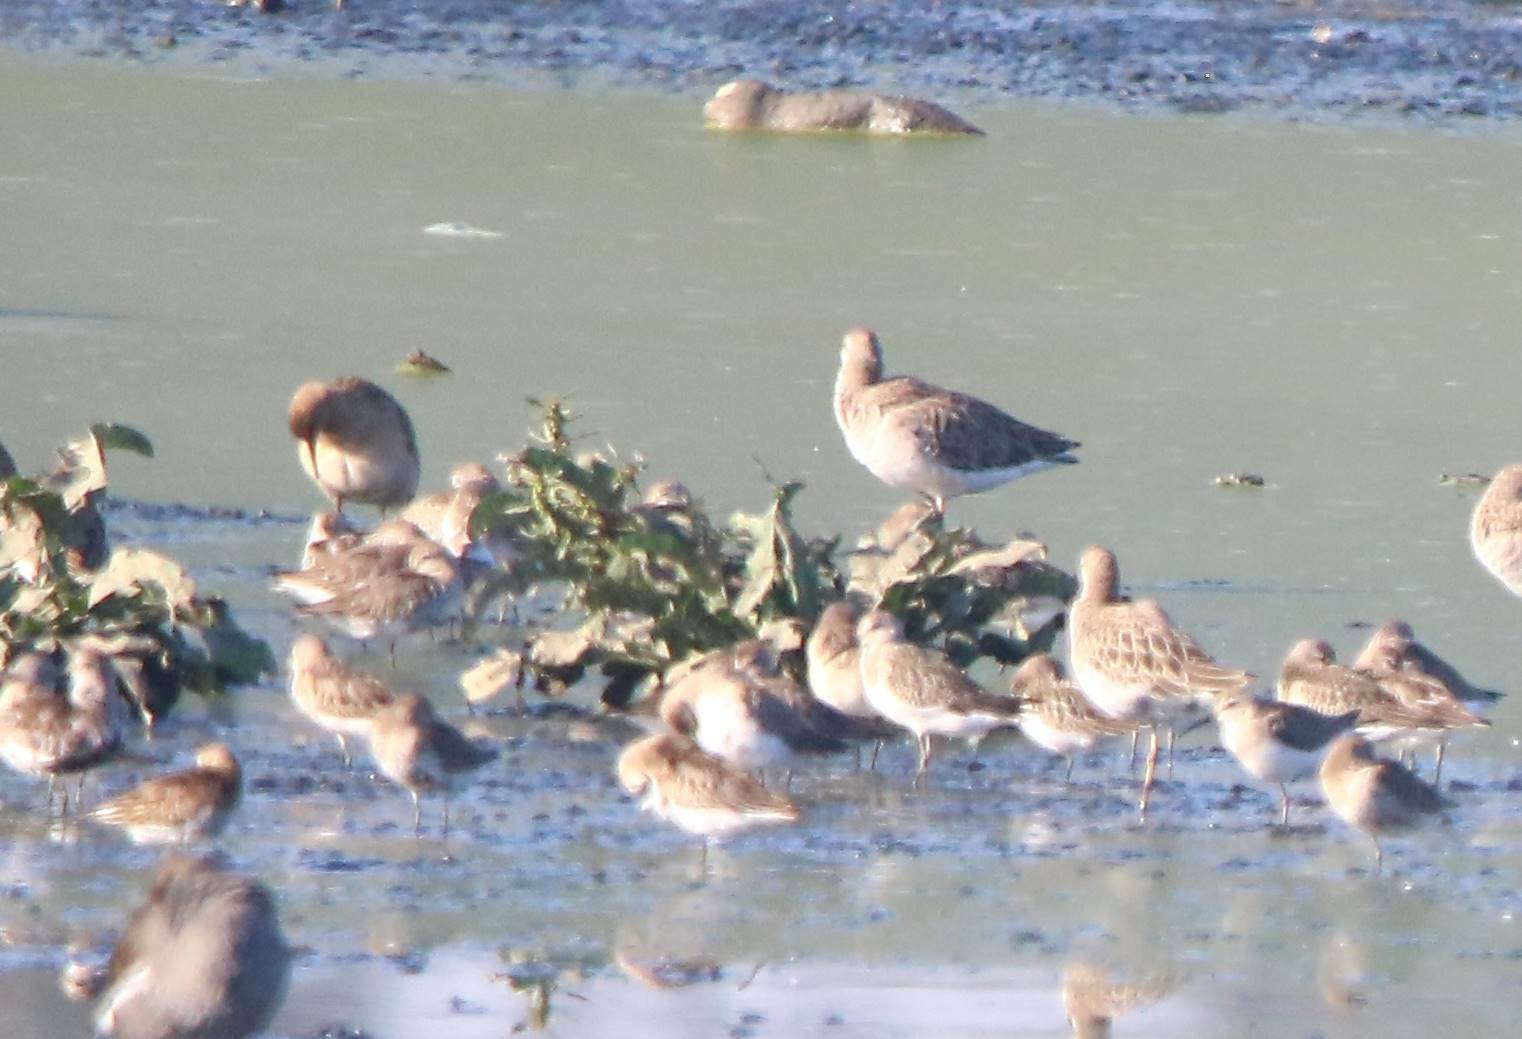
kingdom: Animalia
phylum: Chordata
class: Aves
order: Charadriiformes
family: Scolopacidae
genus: Calidris
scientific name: Calidris pugnax
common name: Ruff
